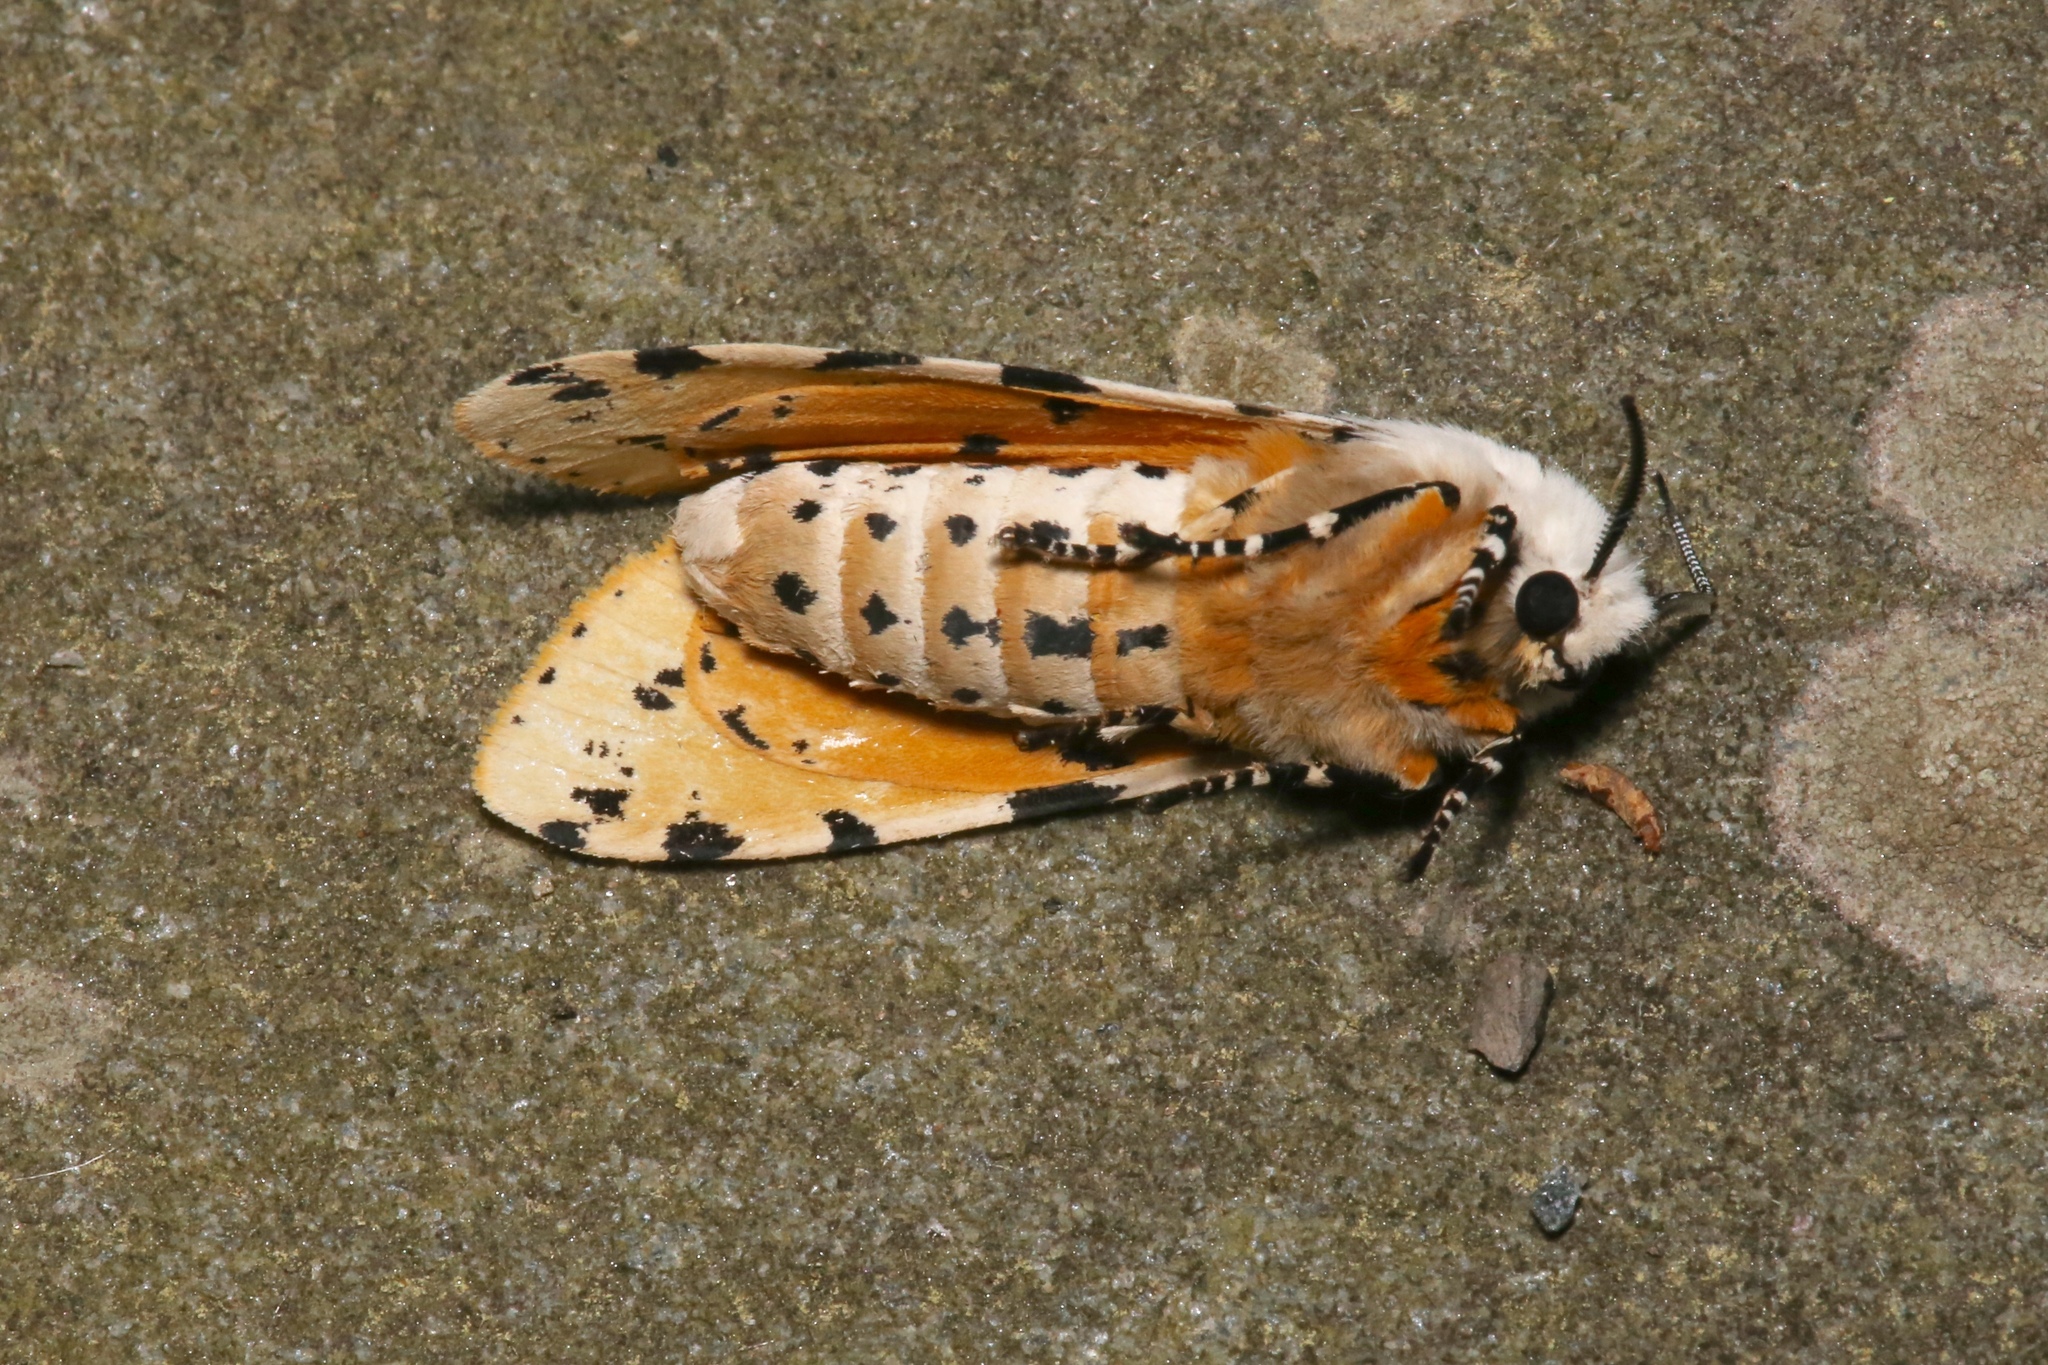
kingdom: Animalia
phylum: Arthropoda
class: Insecta
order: Lepidoptera
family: Erebidae
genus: Estigmene
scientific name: Estigmene acrea
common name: Salt marsh moth
